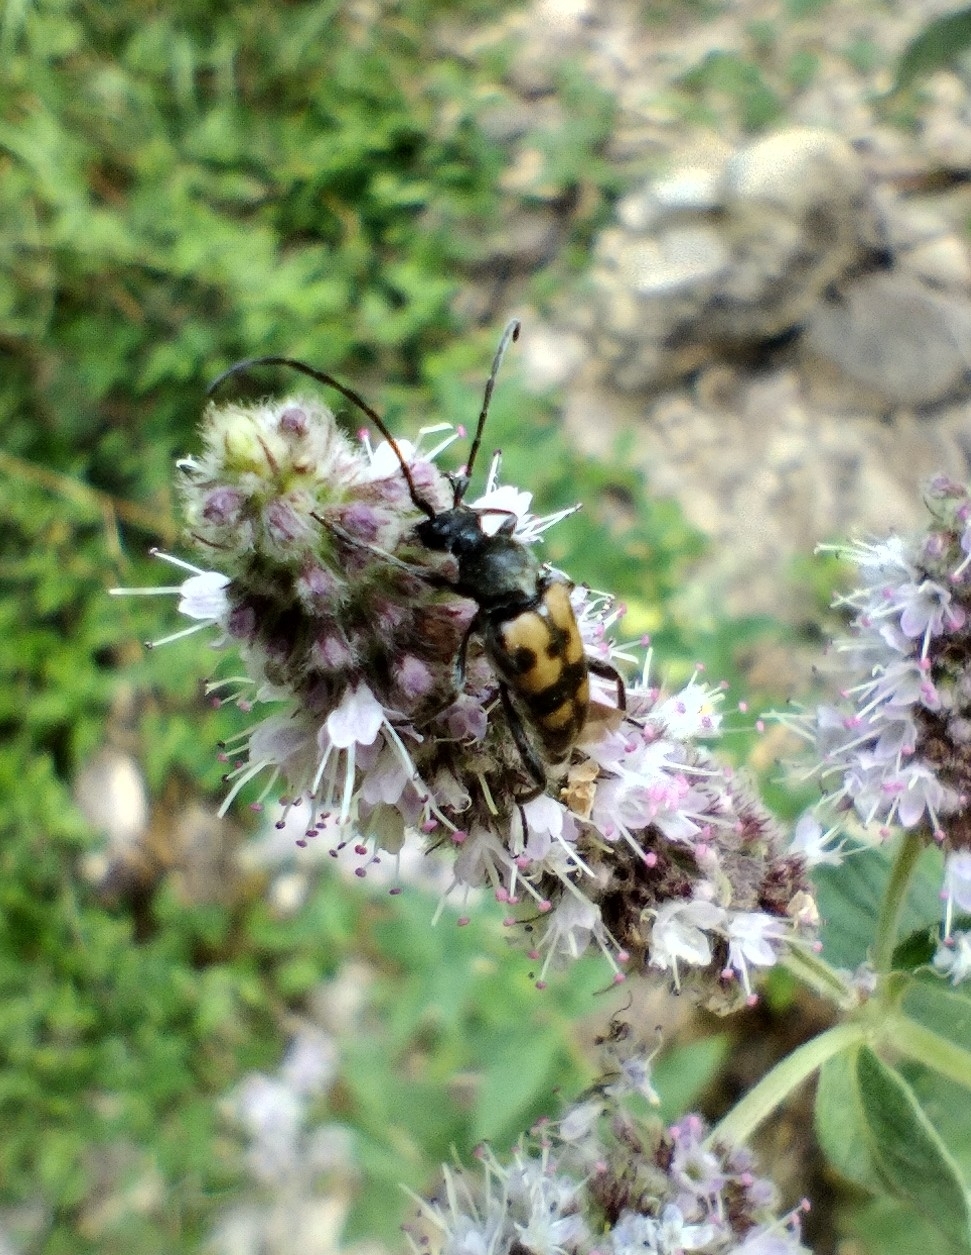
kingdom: Animalia
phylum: Arthropoda
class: Insecta
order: Coleoptera
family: Cerambycidae
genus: Pachytodes
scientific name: Pachytodes
